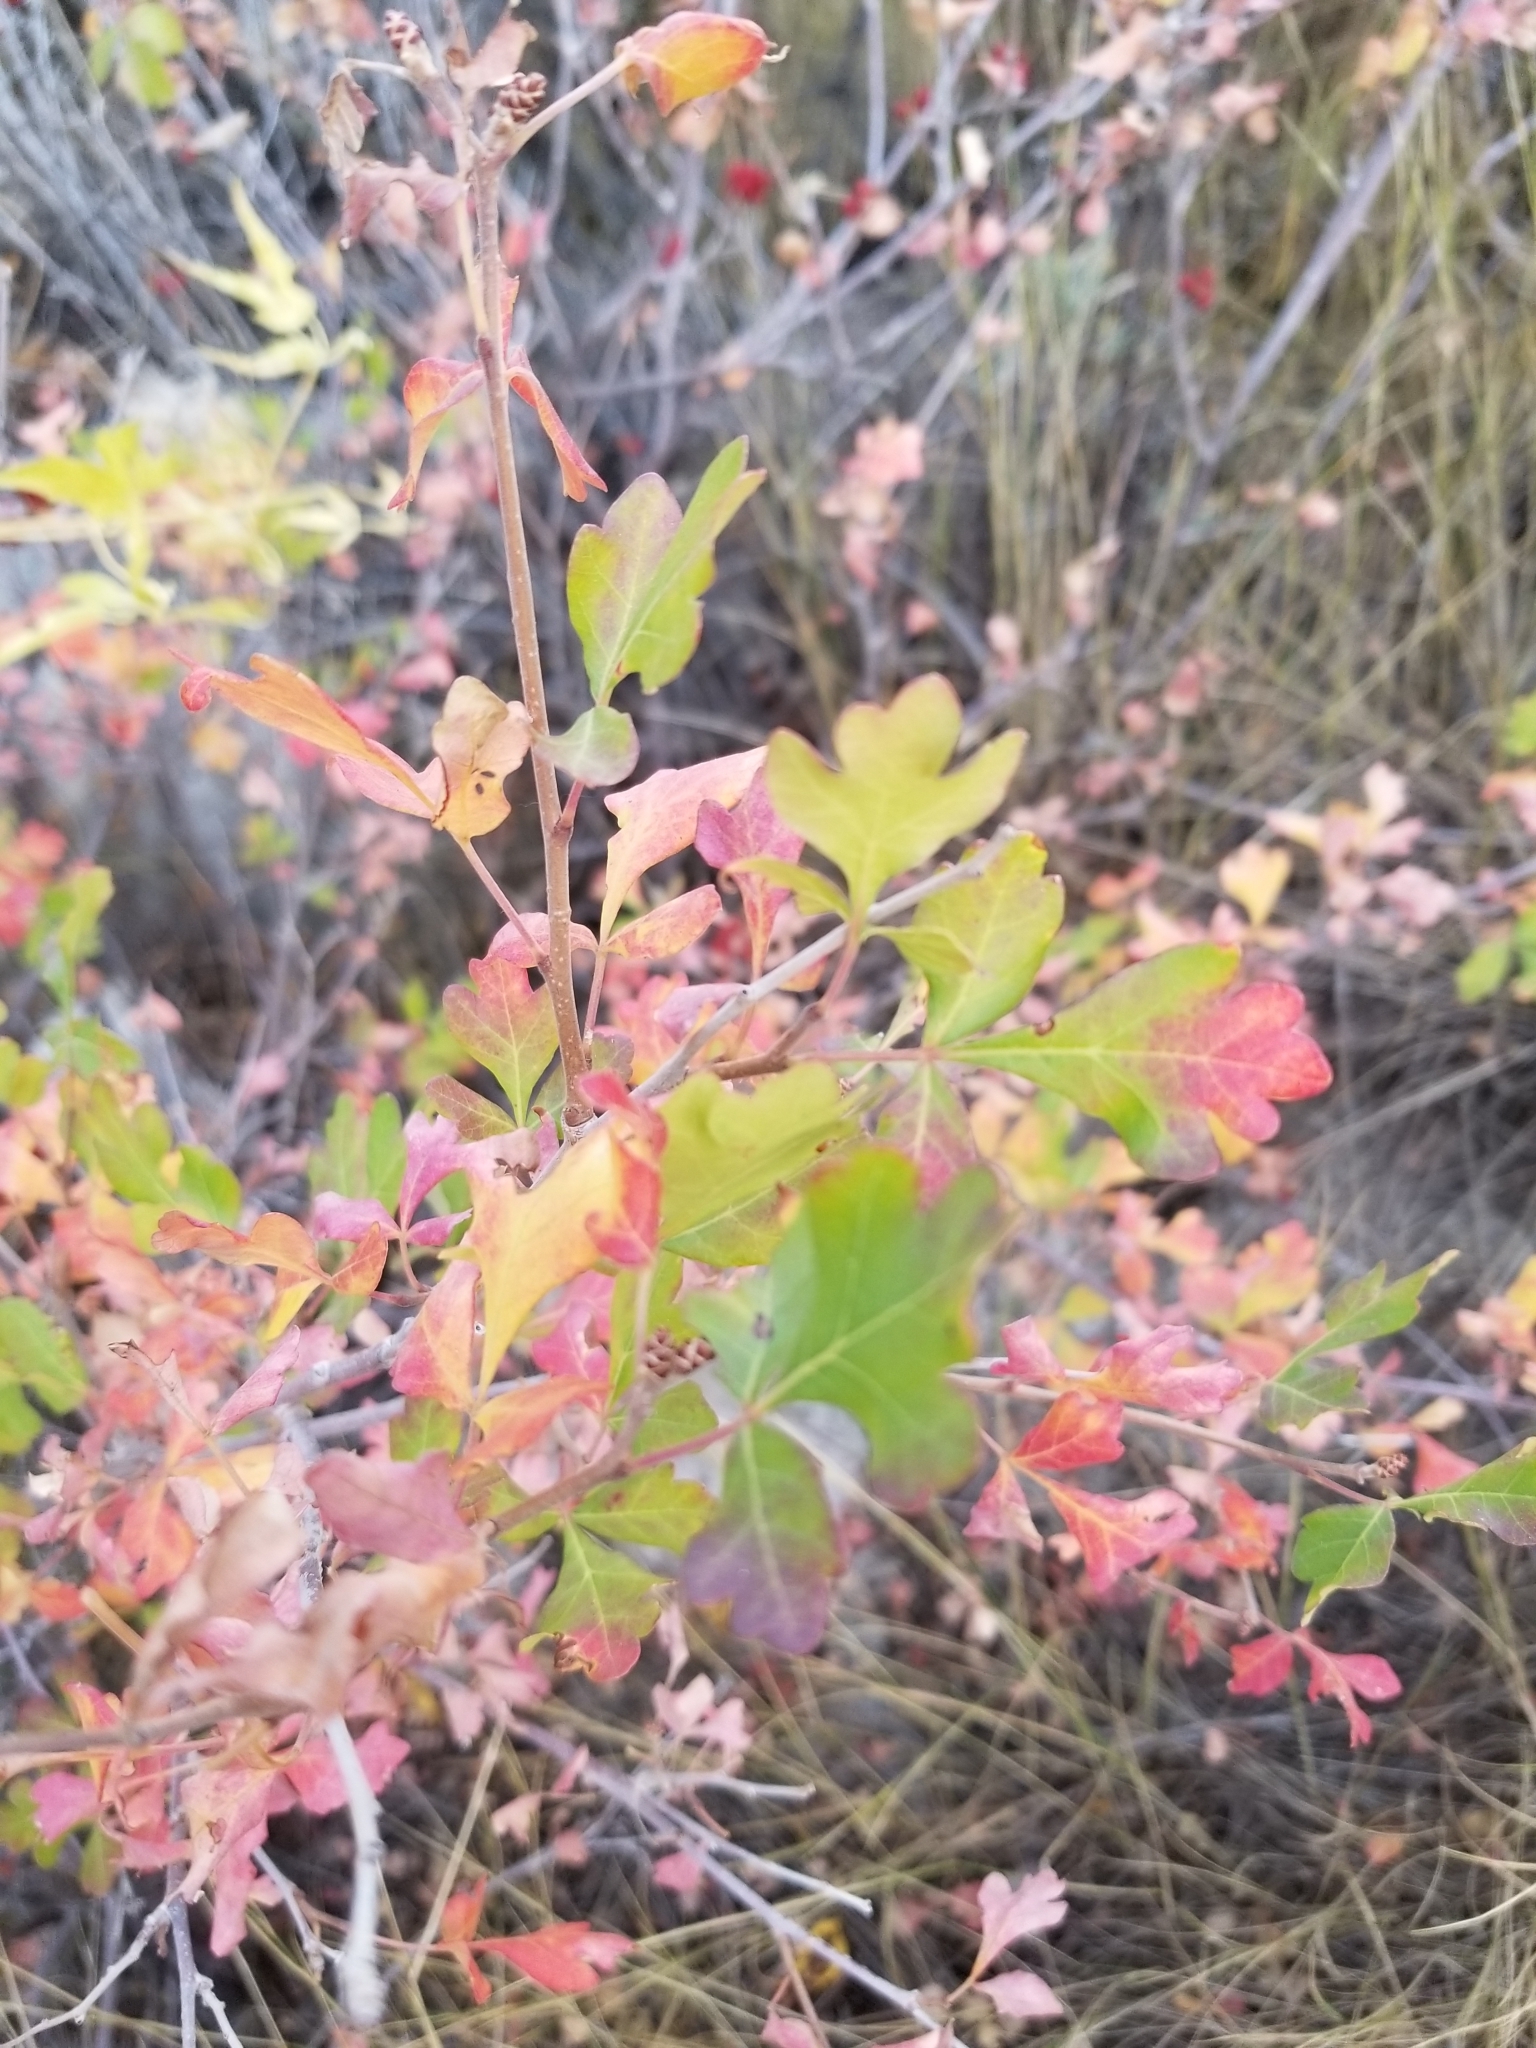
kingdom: Plantae
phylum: Tracheophyta
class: Magnoliopsida
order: Sapindales
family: Anacardiaceae
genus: Rhus
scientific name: Rhus aromatica
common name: Aromatic sumac
